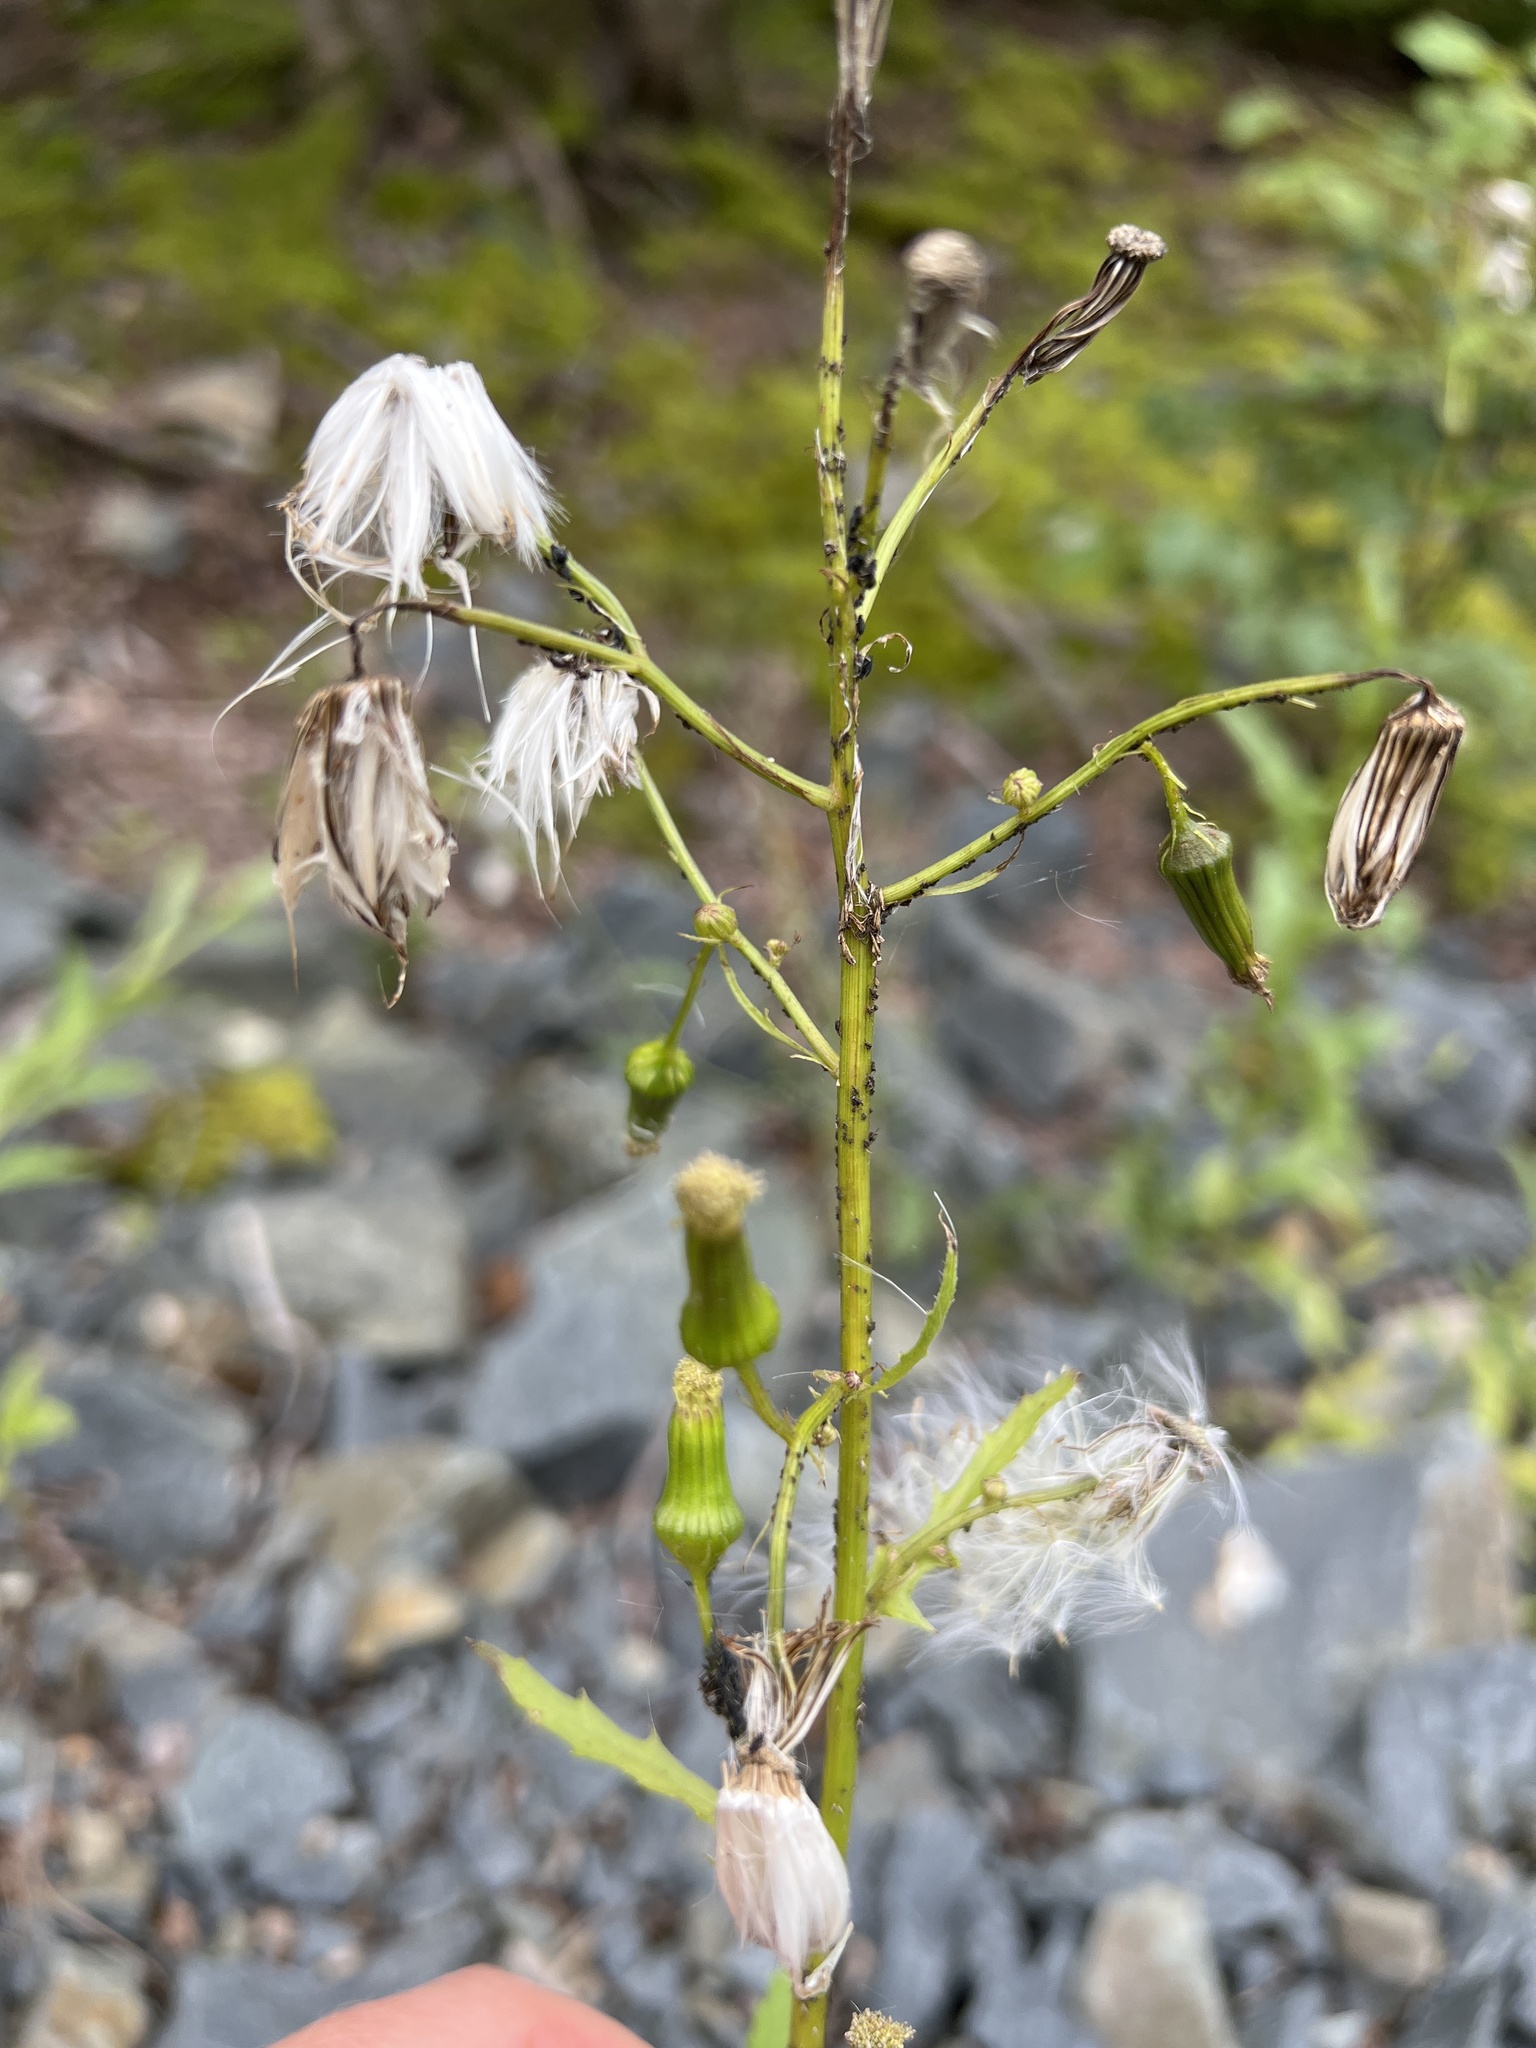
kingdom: Plantae
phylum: Tracheophyta
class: Magnoliopsida
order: Asterales
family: Asteraceae
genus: Erechtites
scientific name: Erechtites hieraciifolius
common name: American burnweed
